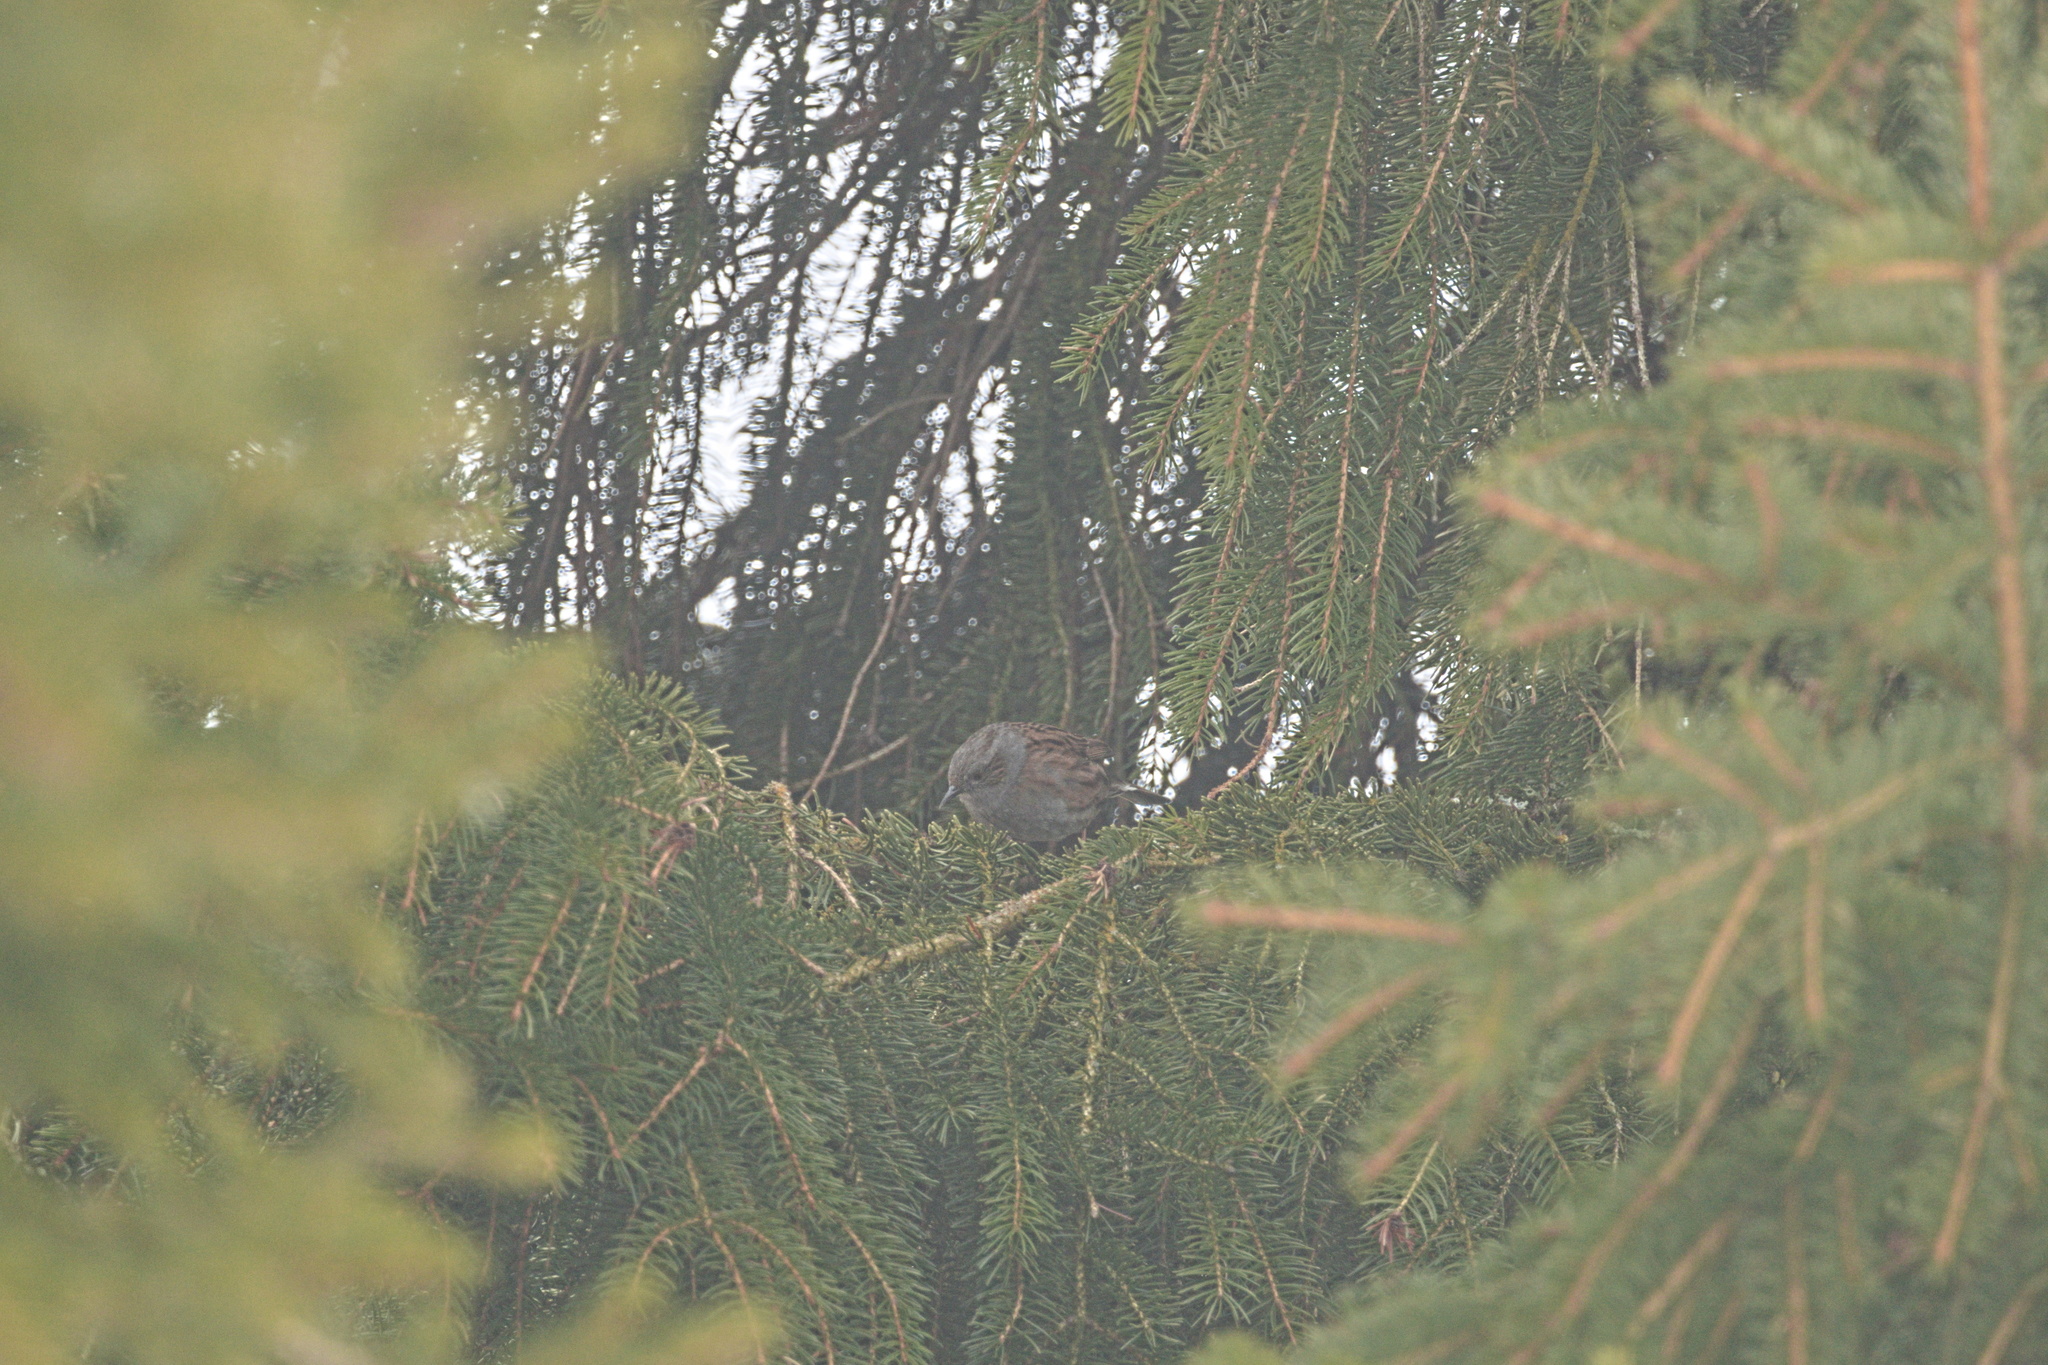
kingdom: Animalia
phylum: Chordata
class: Aves
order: Passeriformes
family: Prunellidae
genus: Prunella
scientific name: Prunella modularis
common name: Dunnock
